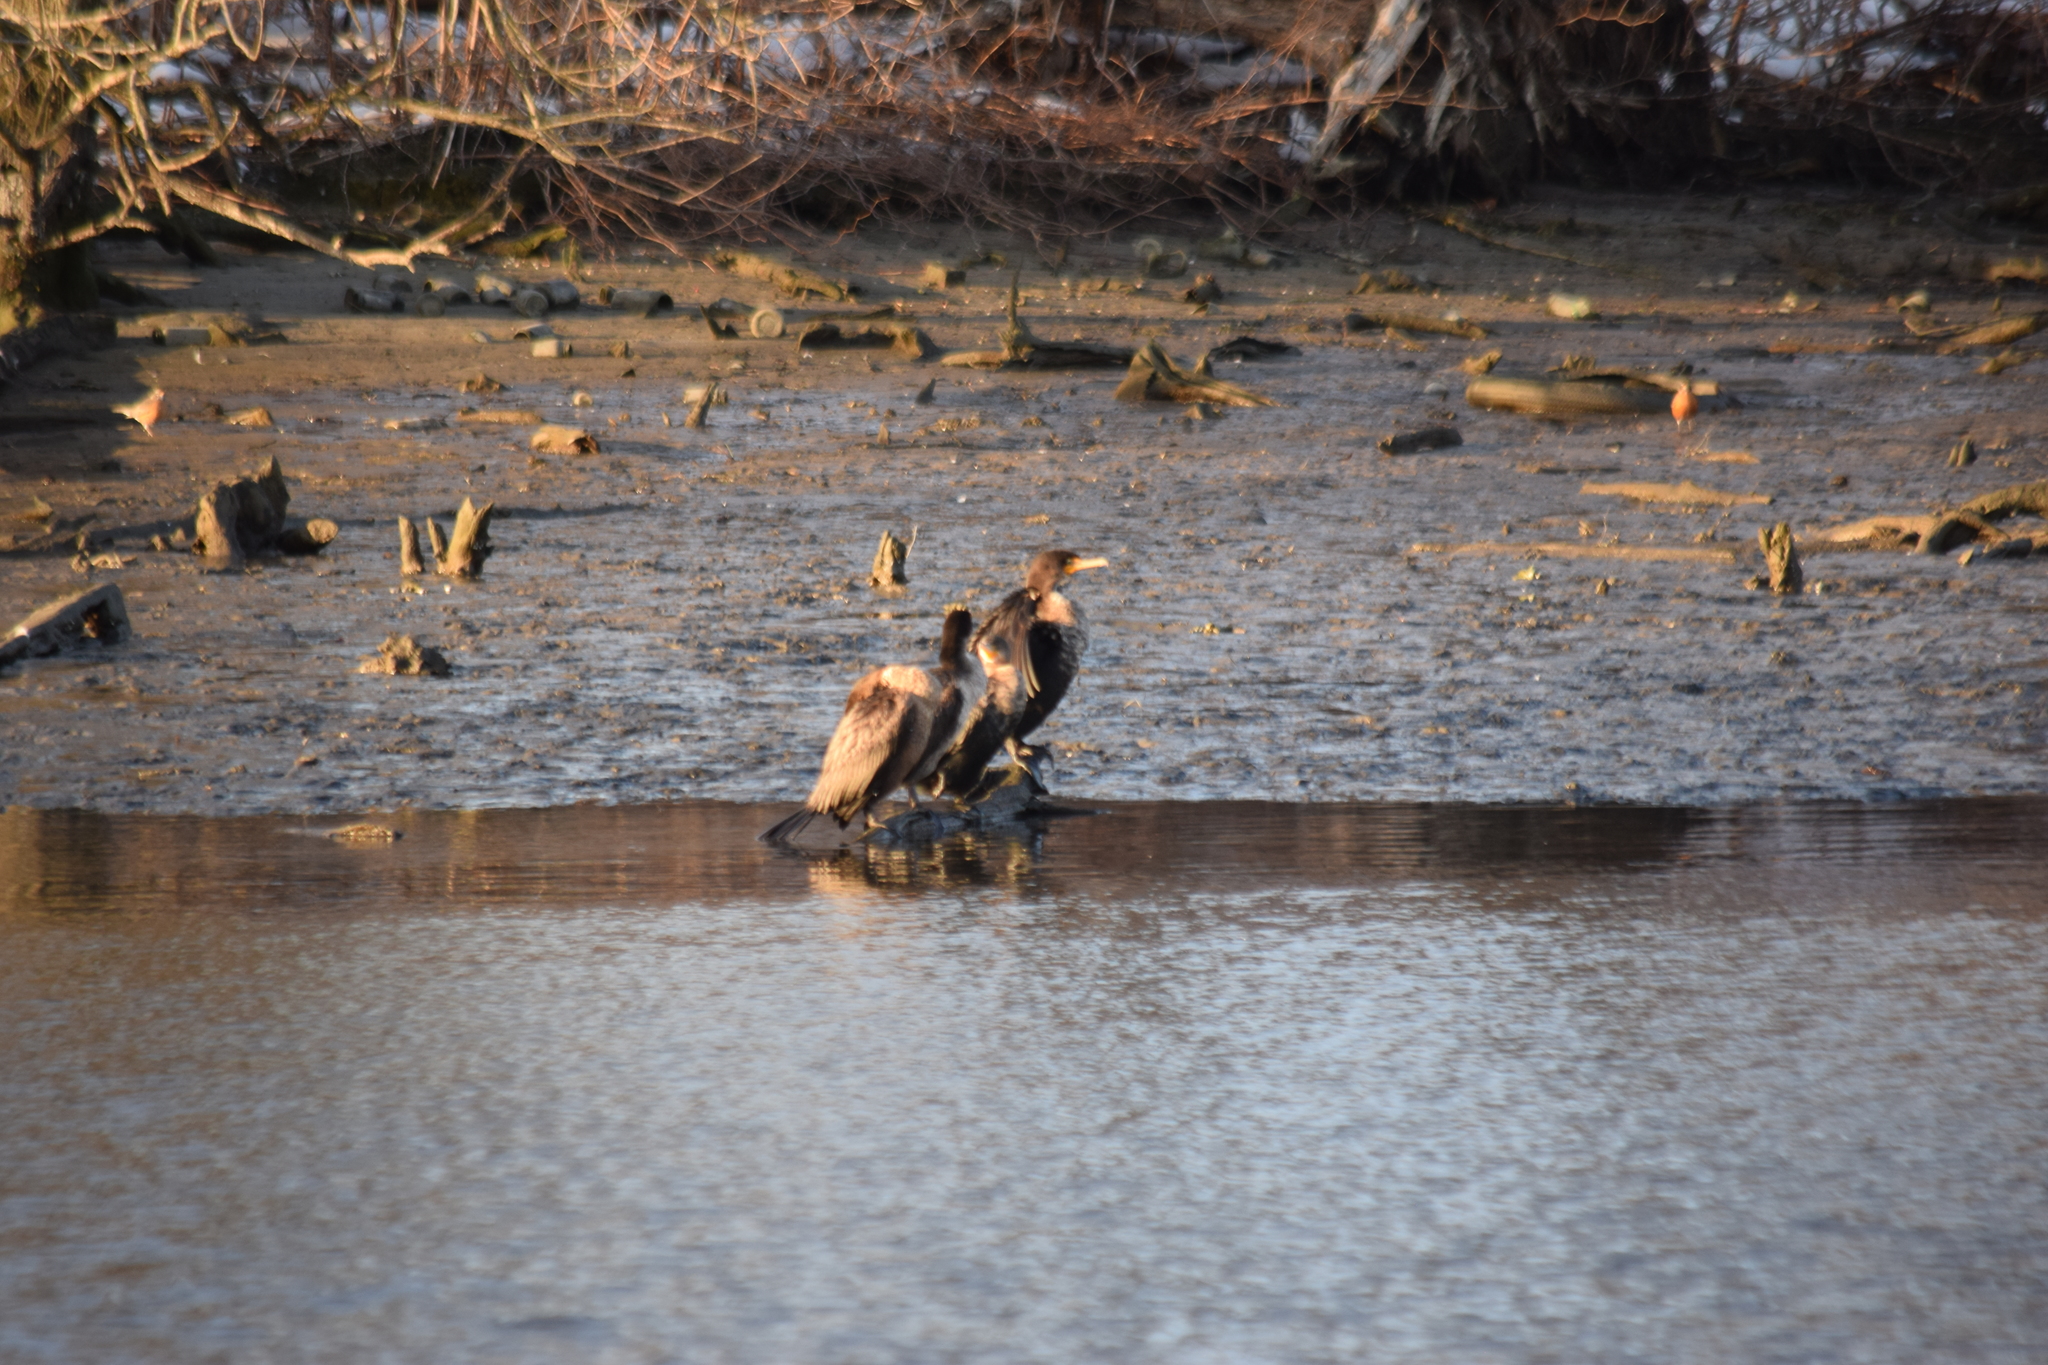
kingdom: Animalia
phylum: Chordata
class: Aves
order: Suliformes
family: Phalacrocoracidae
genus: Phalacrocorax
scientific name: Phalacrocorax auritus
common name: Double-crested cormorant
